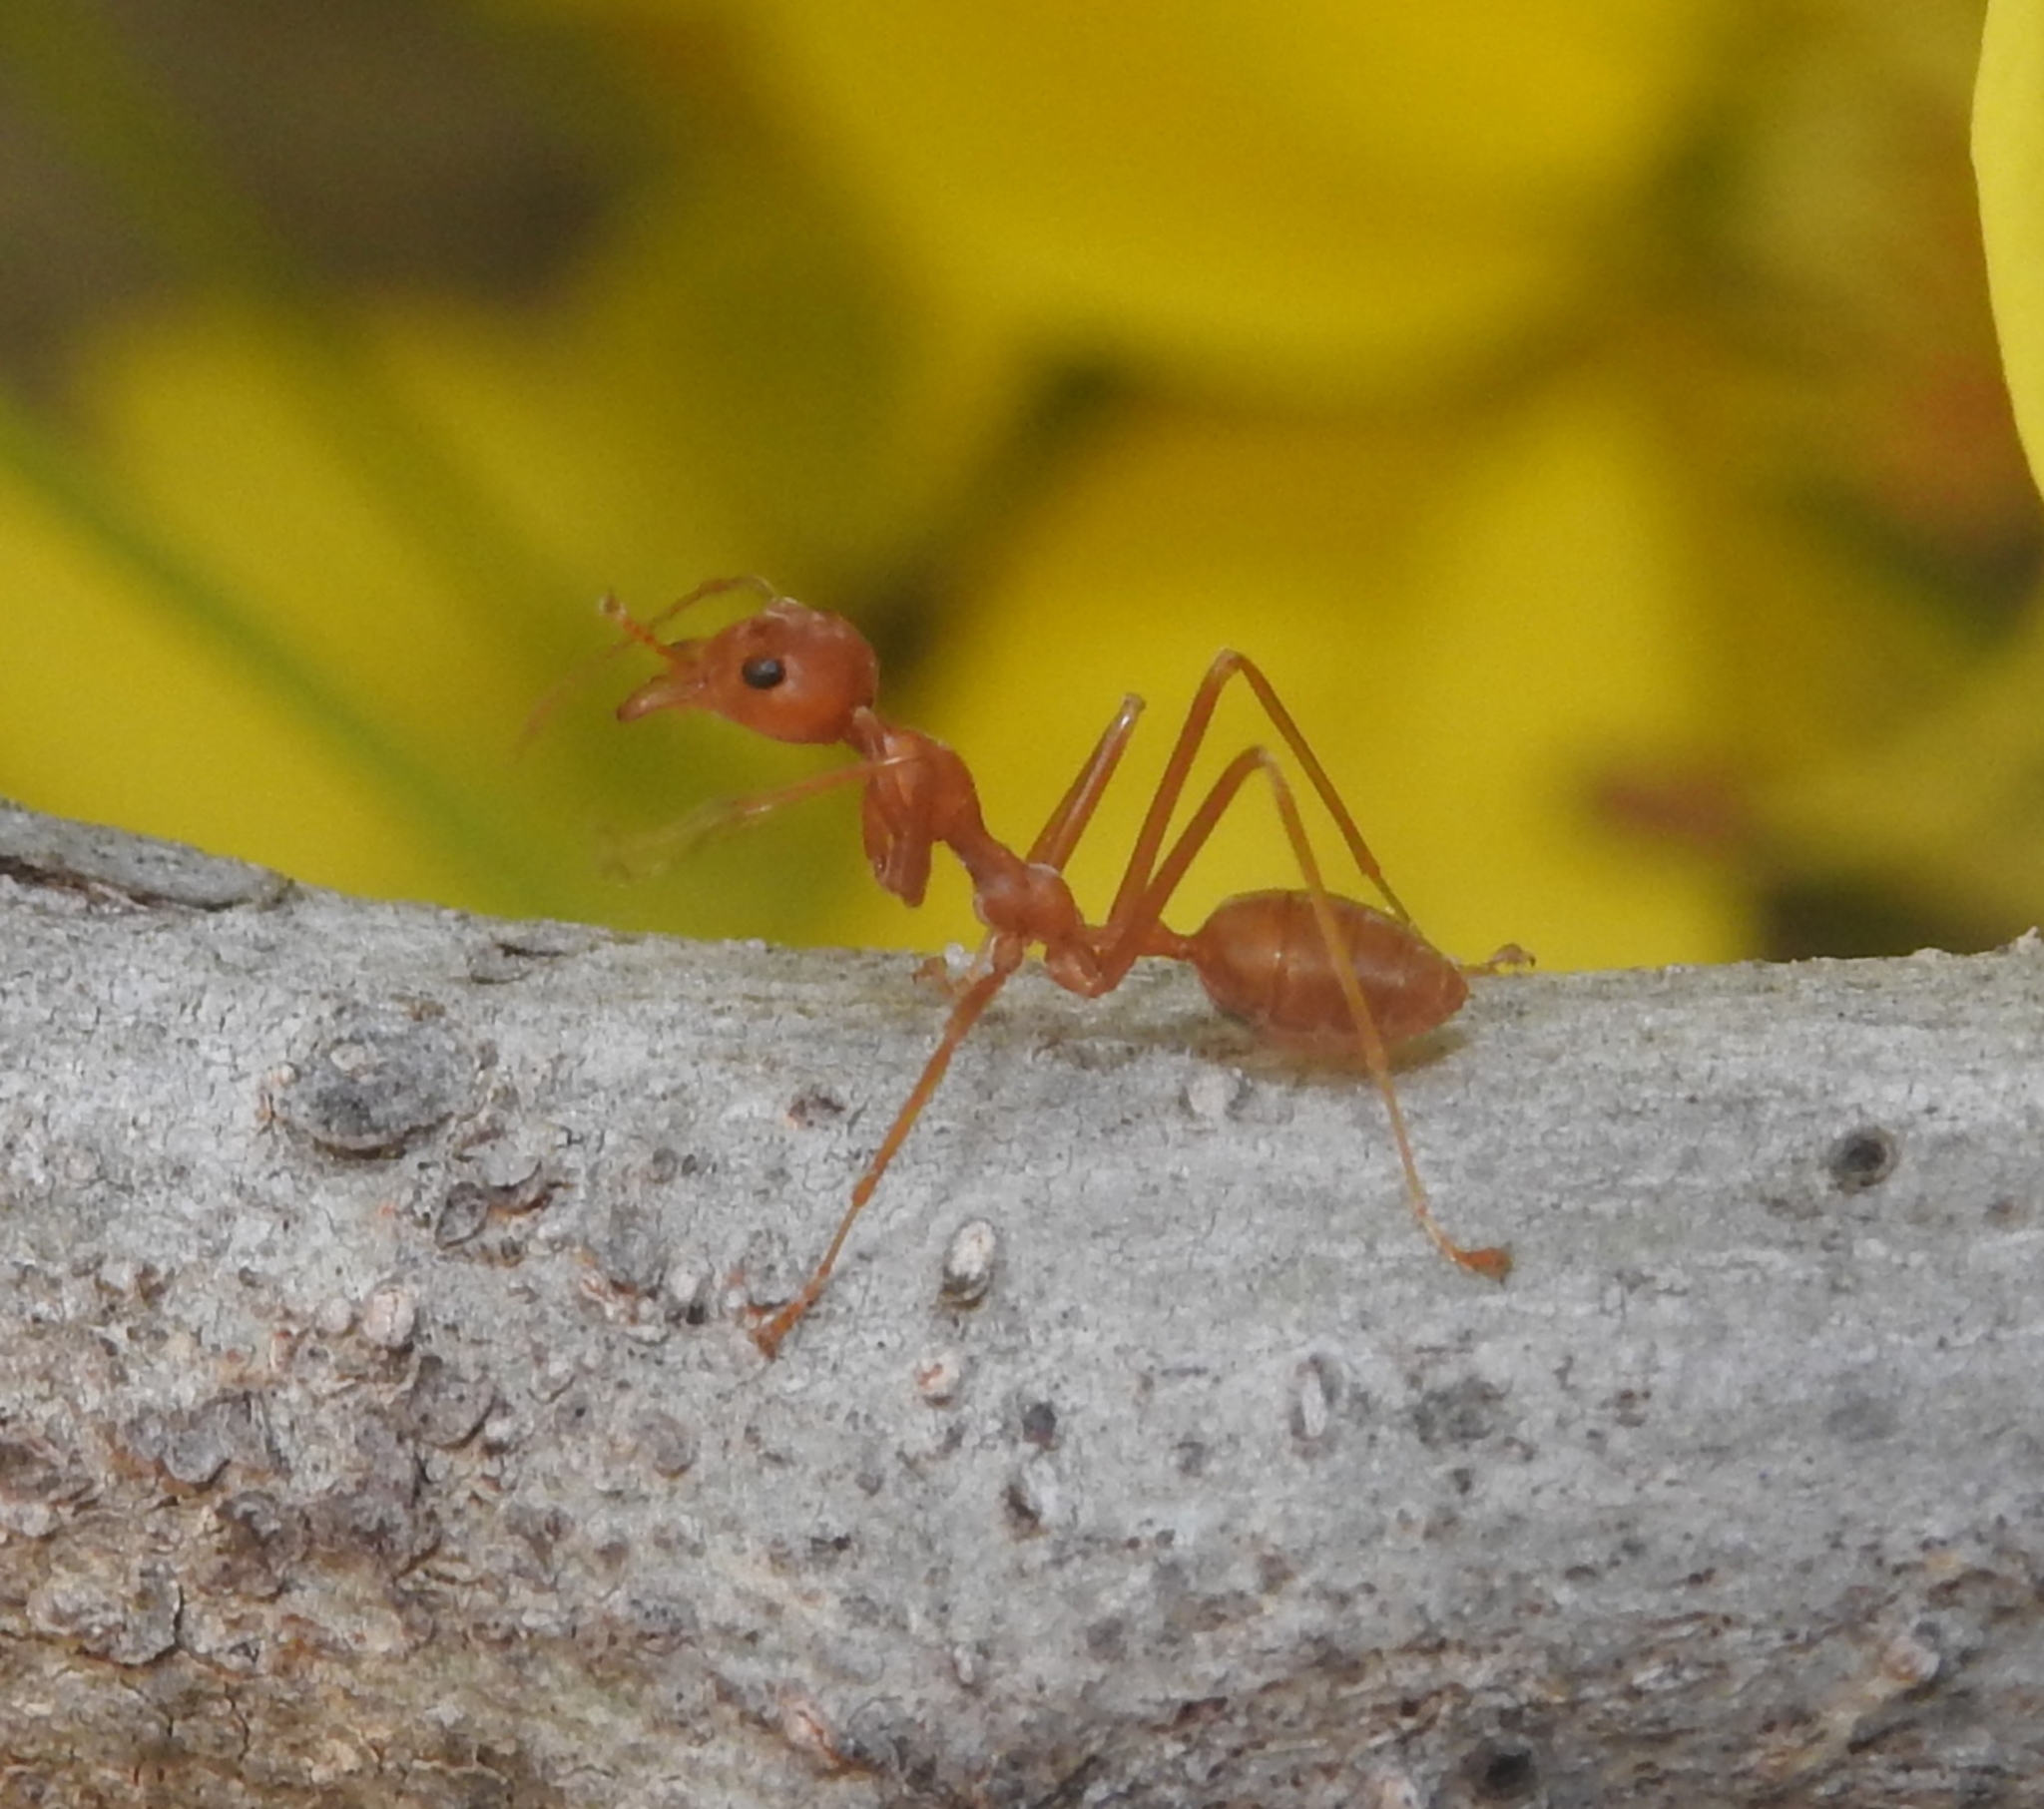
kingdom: Animalia
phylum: Arthropoda
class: Insecta
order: Hymenoptera
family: Formicidae
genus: Oecophylla
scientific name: Oecophylla smaragdina
